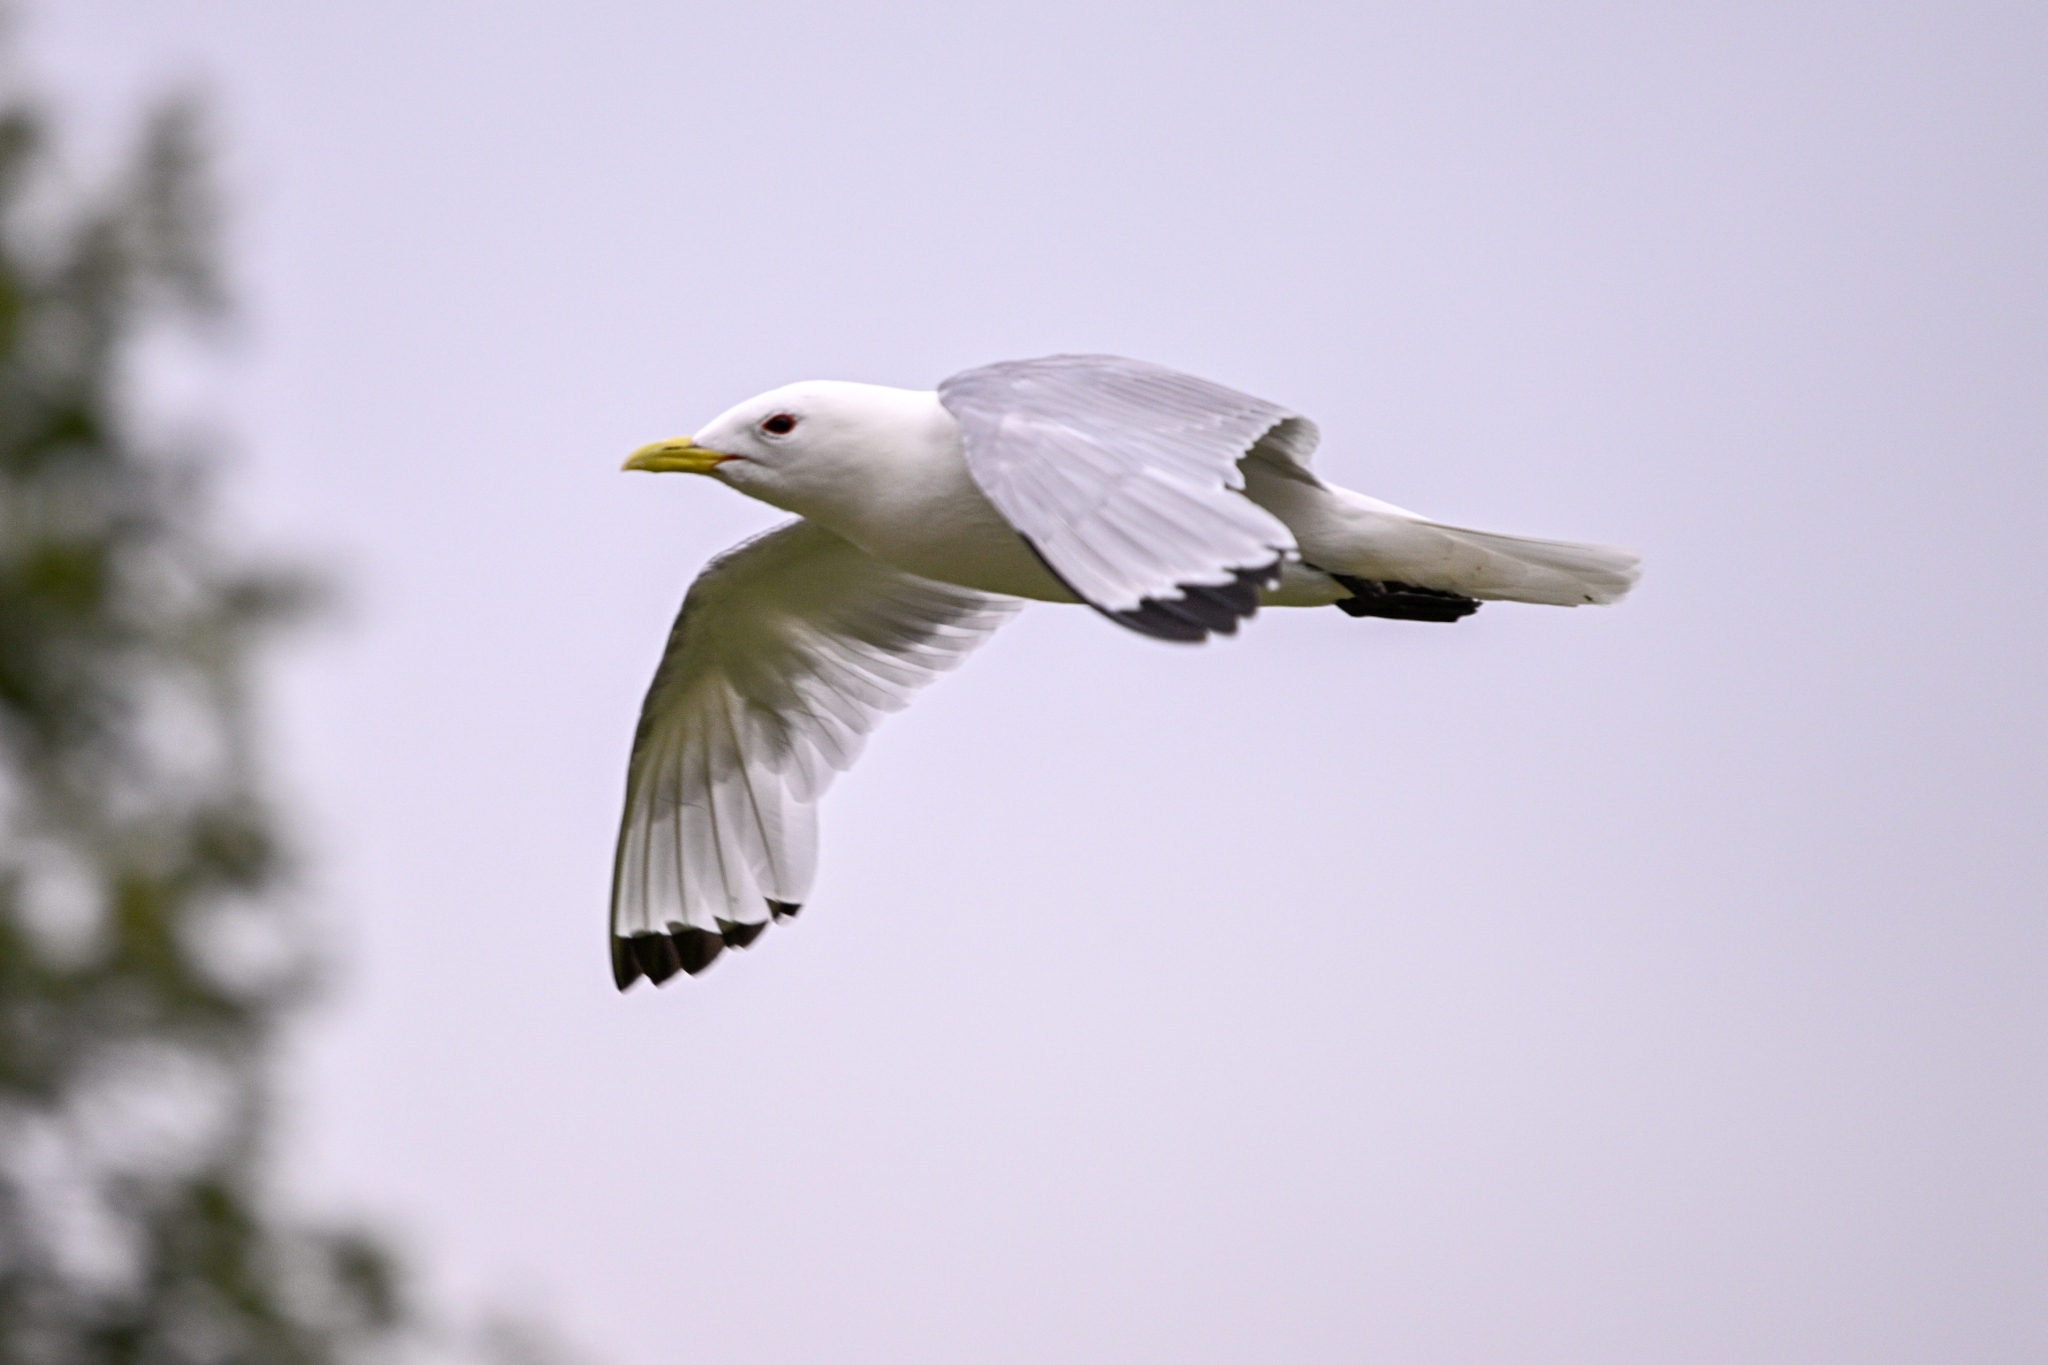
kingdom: Animalia
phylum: Chordata
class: Aves
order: Charadriiformes
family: Laridae
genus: Rissa
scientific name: Rissa tridactyla
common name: Black-legged kittiwake
